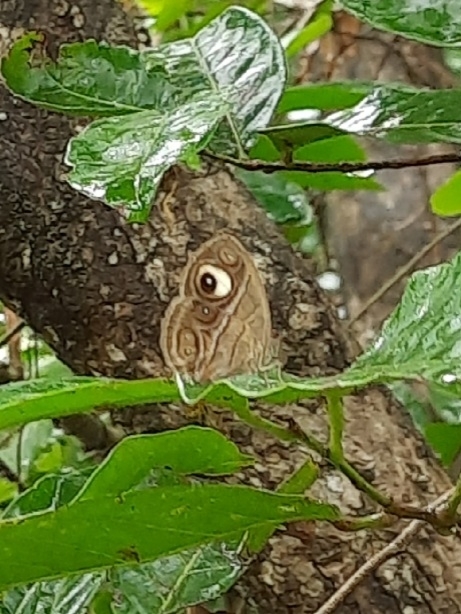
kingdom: Animalia
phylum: Arthropoda
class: Insecta
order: Lepidoptera
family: Nymphalidae
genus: Mycalesis
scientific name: Mycalesis patnia
